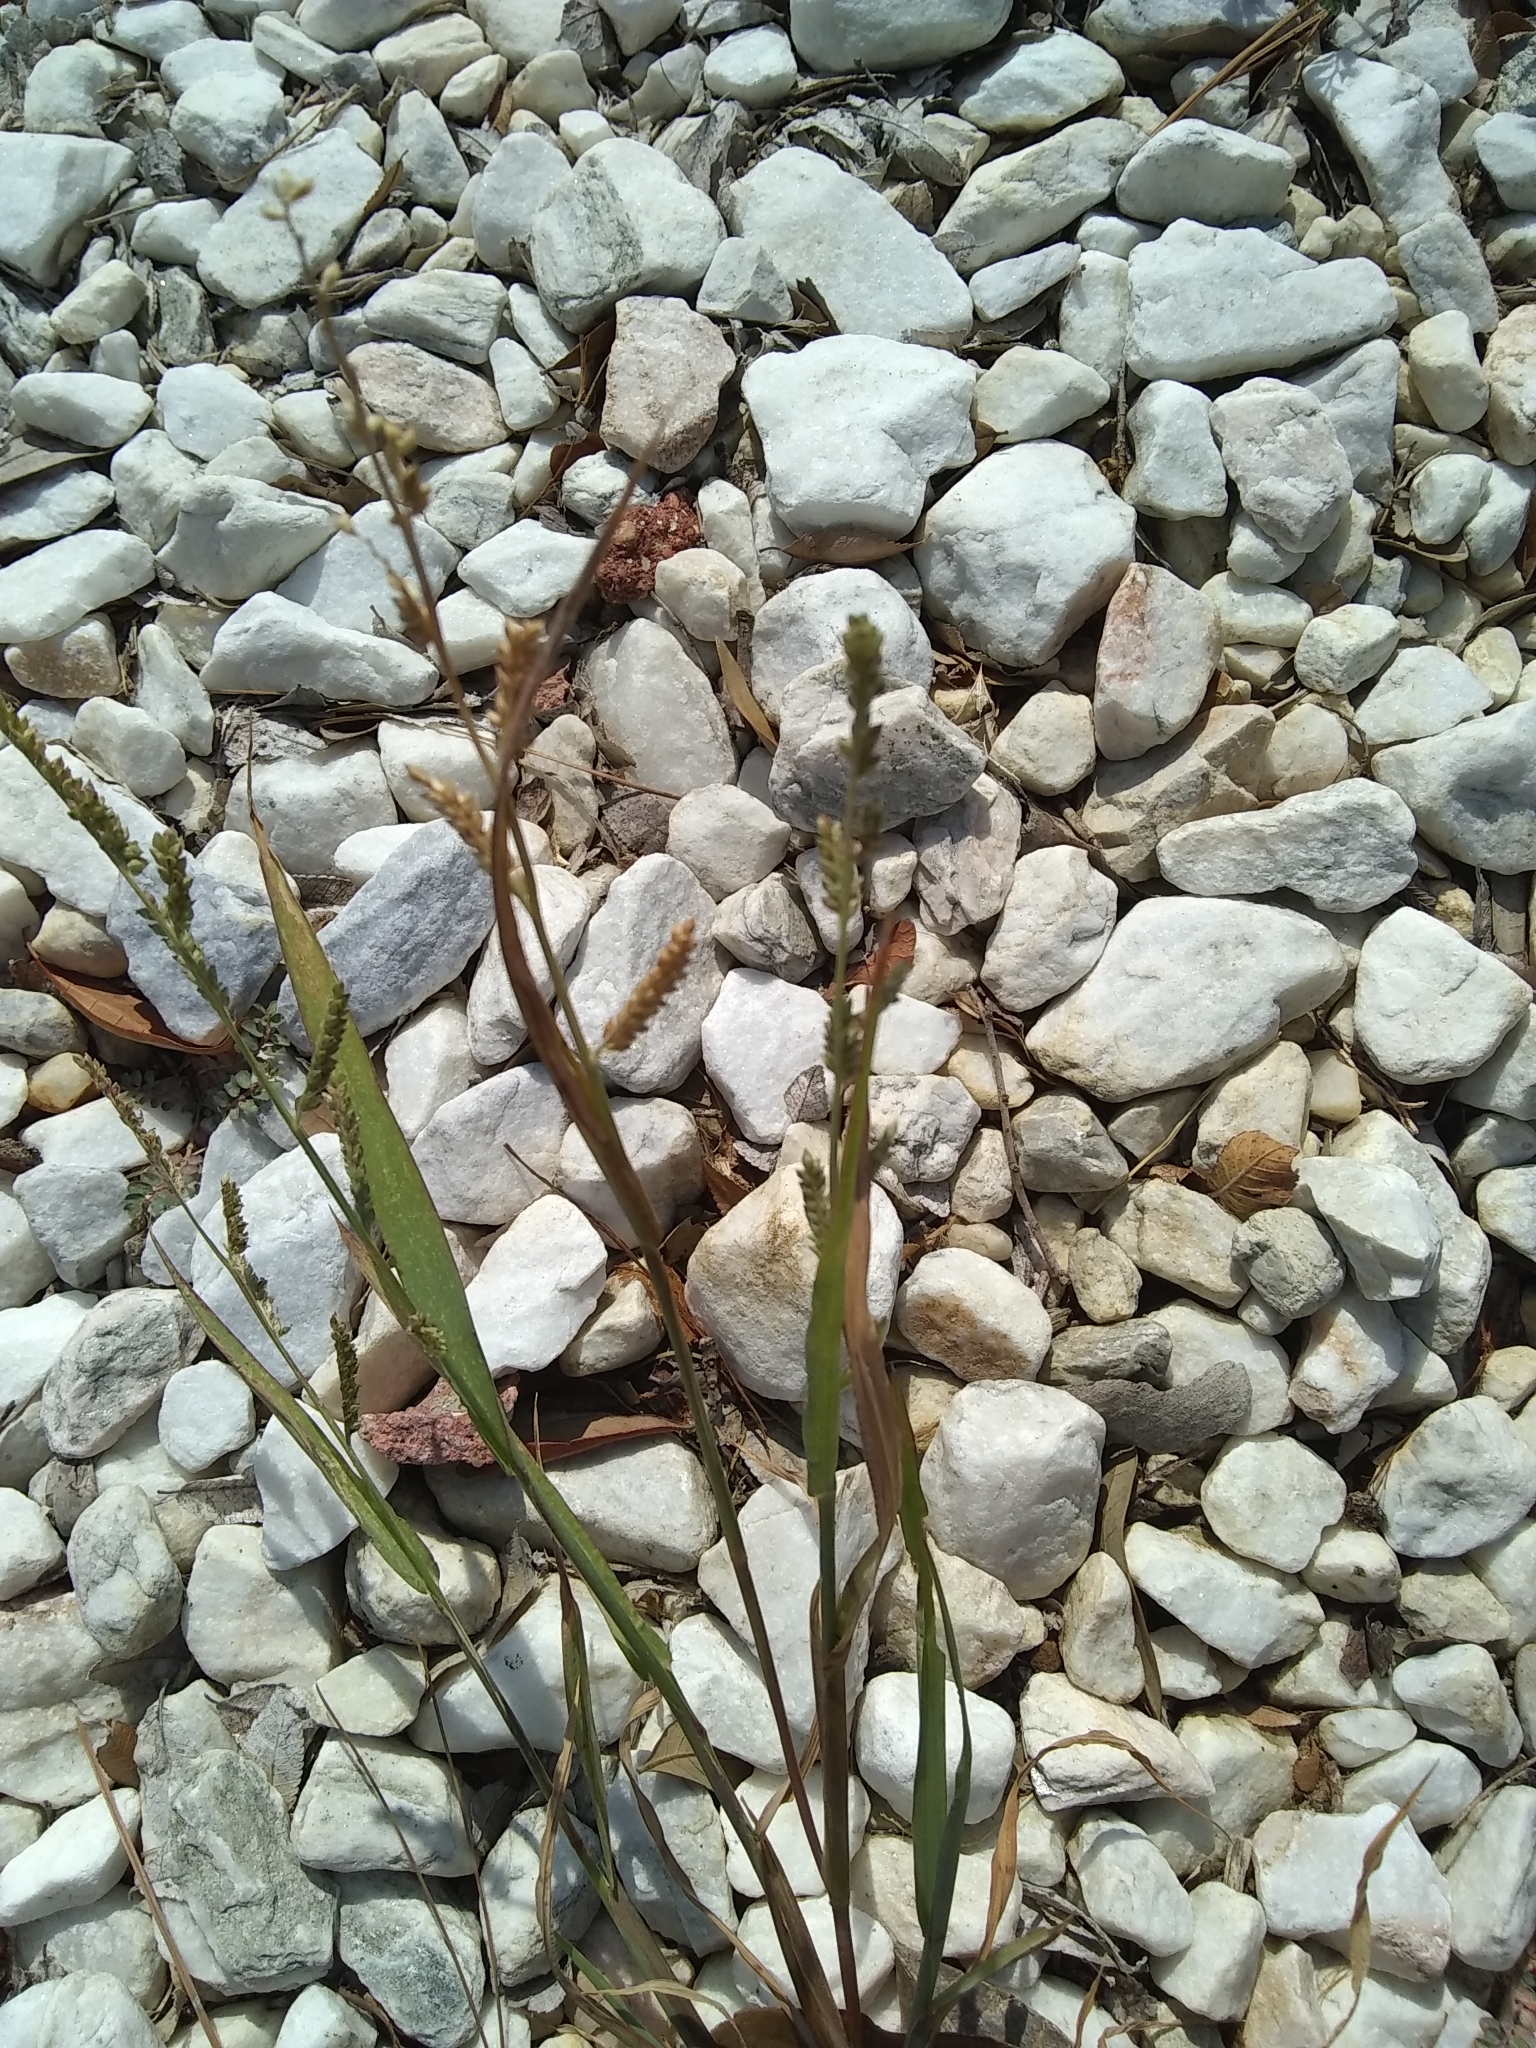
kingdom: Plantae
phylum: Tracheophyta
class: Liliopsida
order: Poales
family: Poaceae
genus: Echinochloa
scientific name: Echinochloa colonum
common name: Jungle rice
